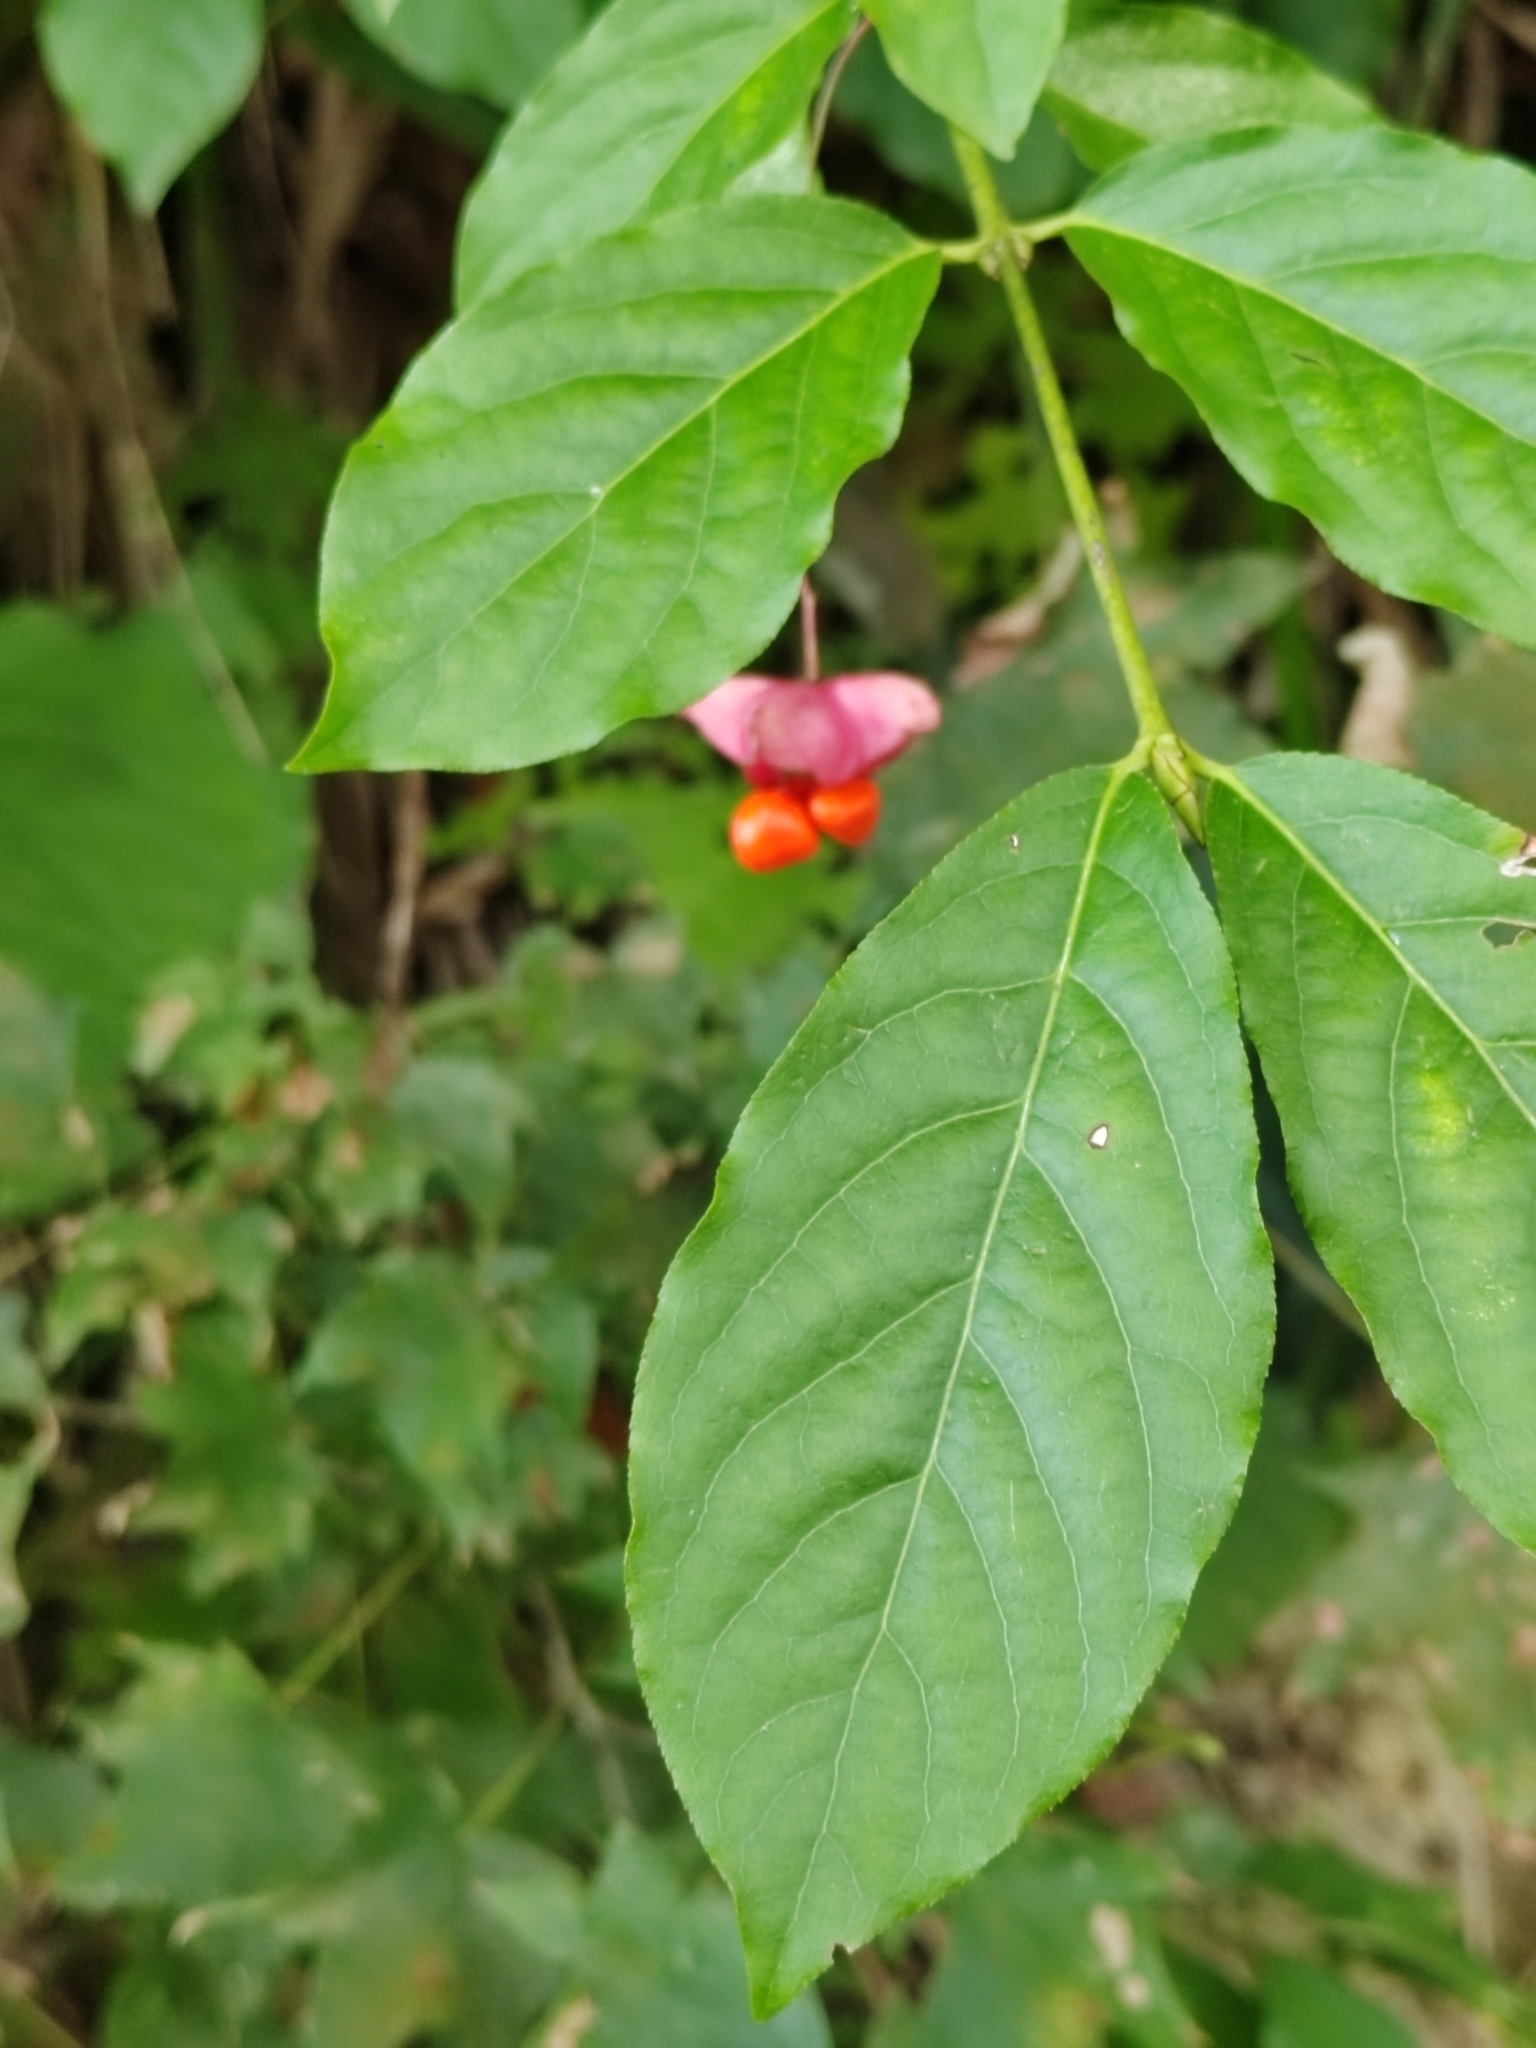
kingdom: Plantae
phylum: Tracheophyta
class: Magnoliopsida
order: Celastrales
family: Celastraceae
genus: Euonymus
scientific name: Euonymus latifolius
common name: Large-leaved spindle
